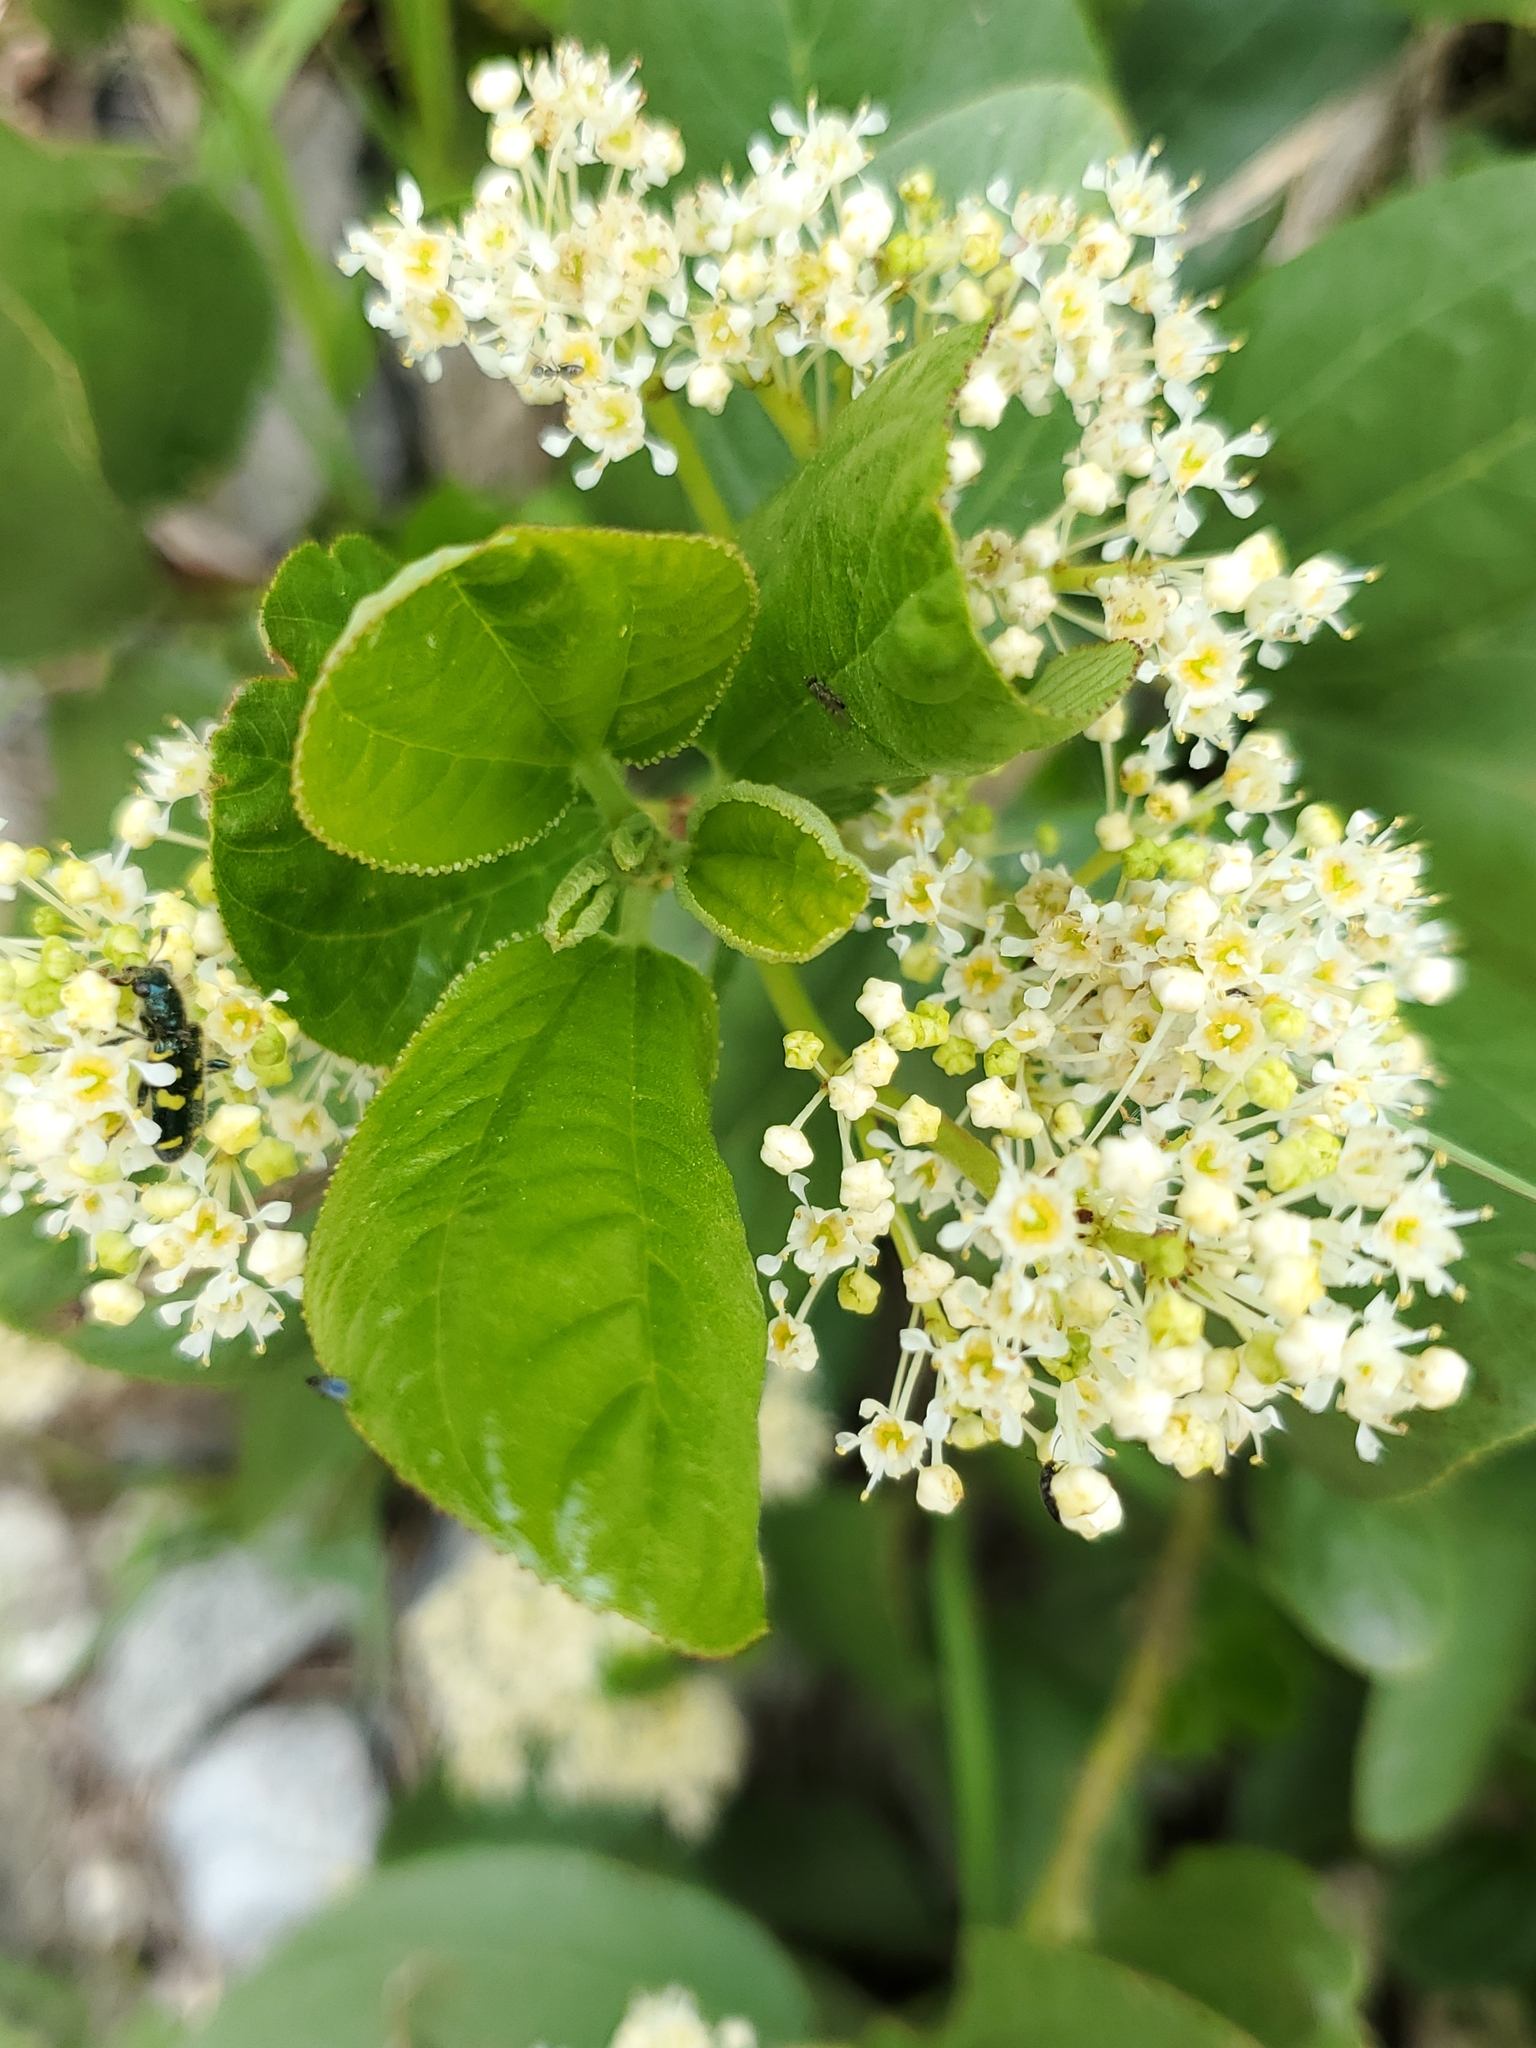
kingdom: Plantae
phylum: Tracheophyta
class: Magnoliopsida
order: Rosales
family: Rhamnaceae
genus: Ceanothus
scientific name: Ceanothus velutinus
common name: Snowbrush
